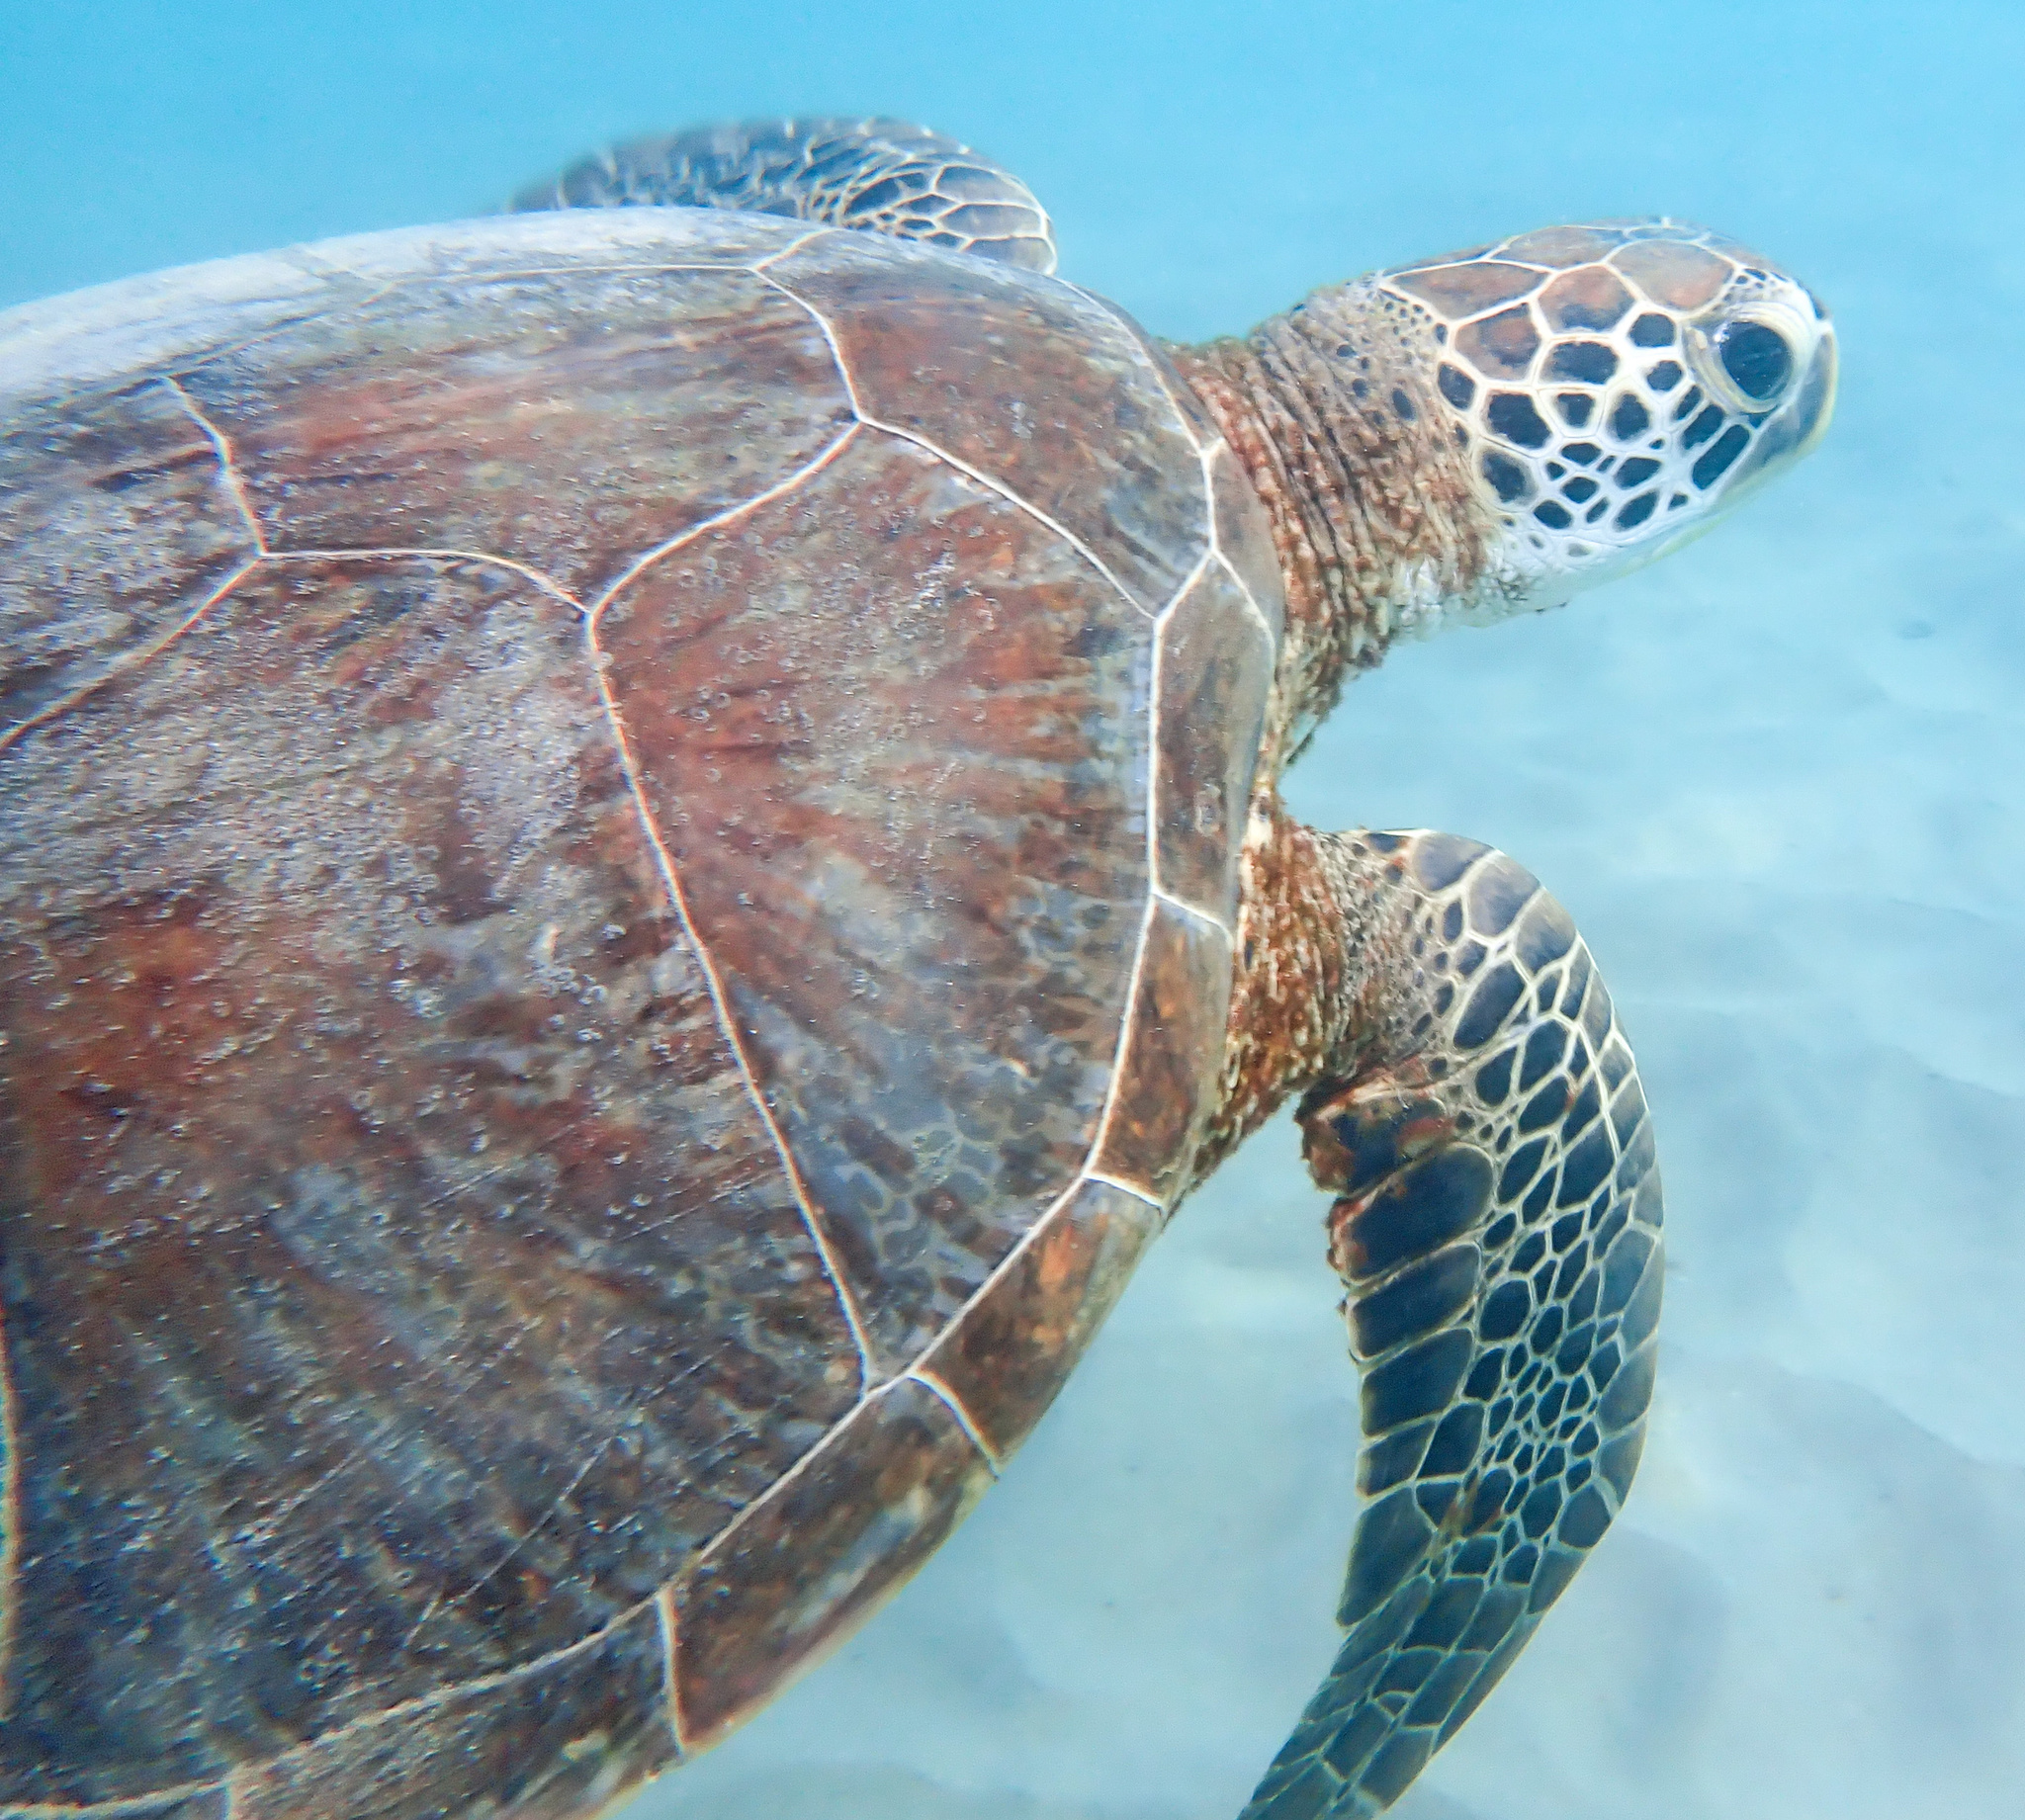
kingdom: Animalia
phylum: Chordata
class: Testudines
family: Cheloniidae
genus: Chelonia
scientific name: Chelonia mydas
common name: Green turtle
